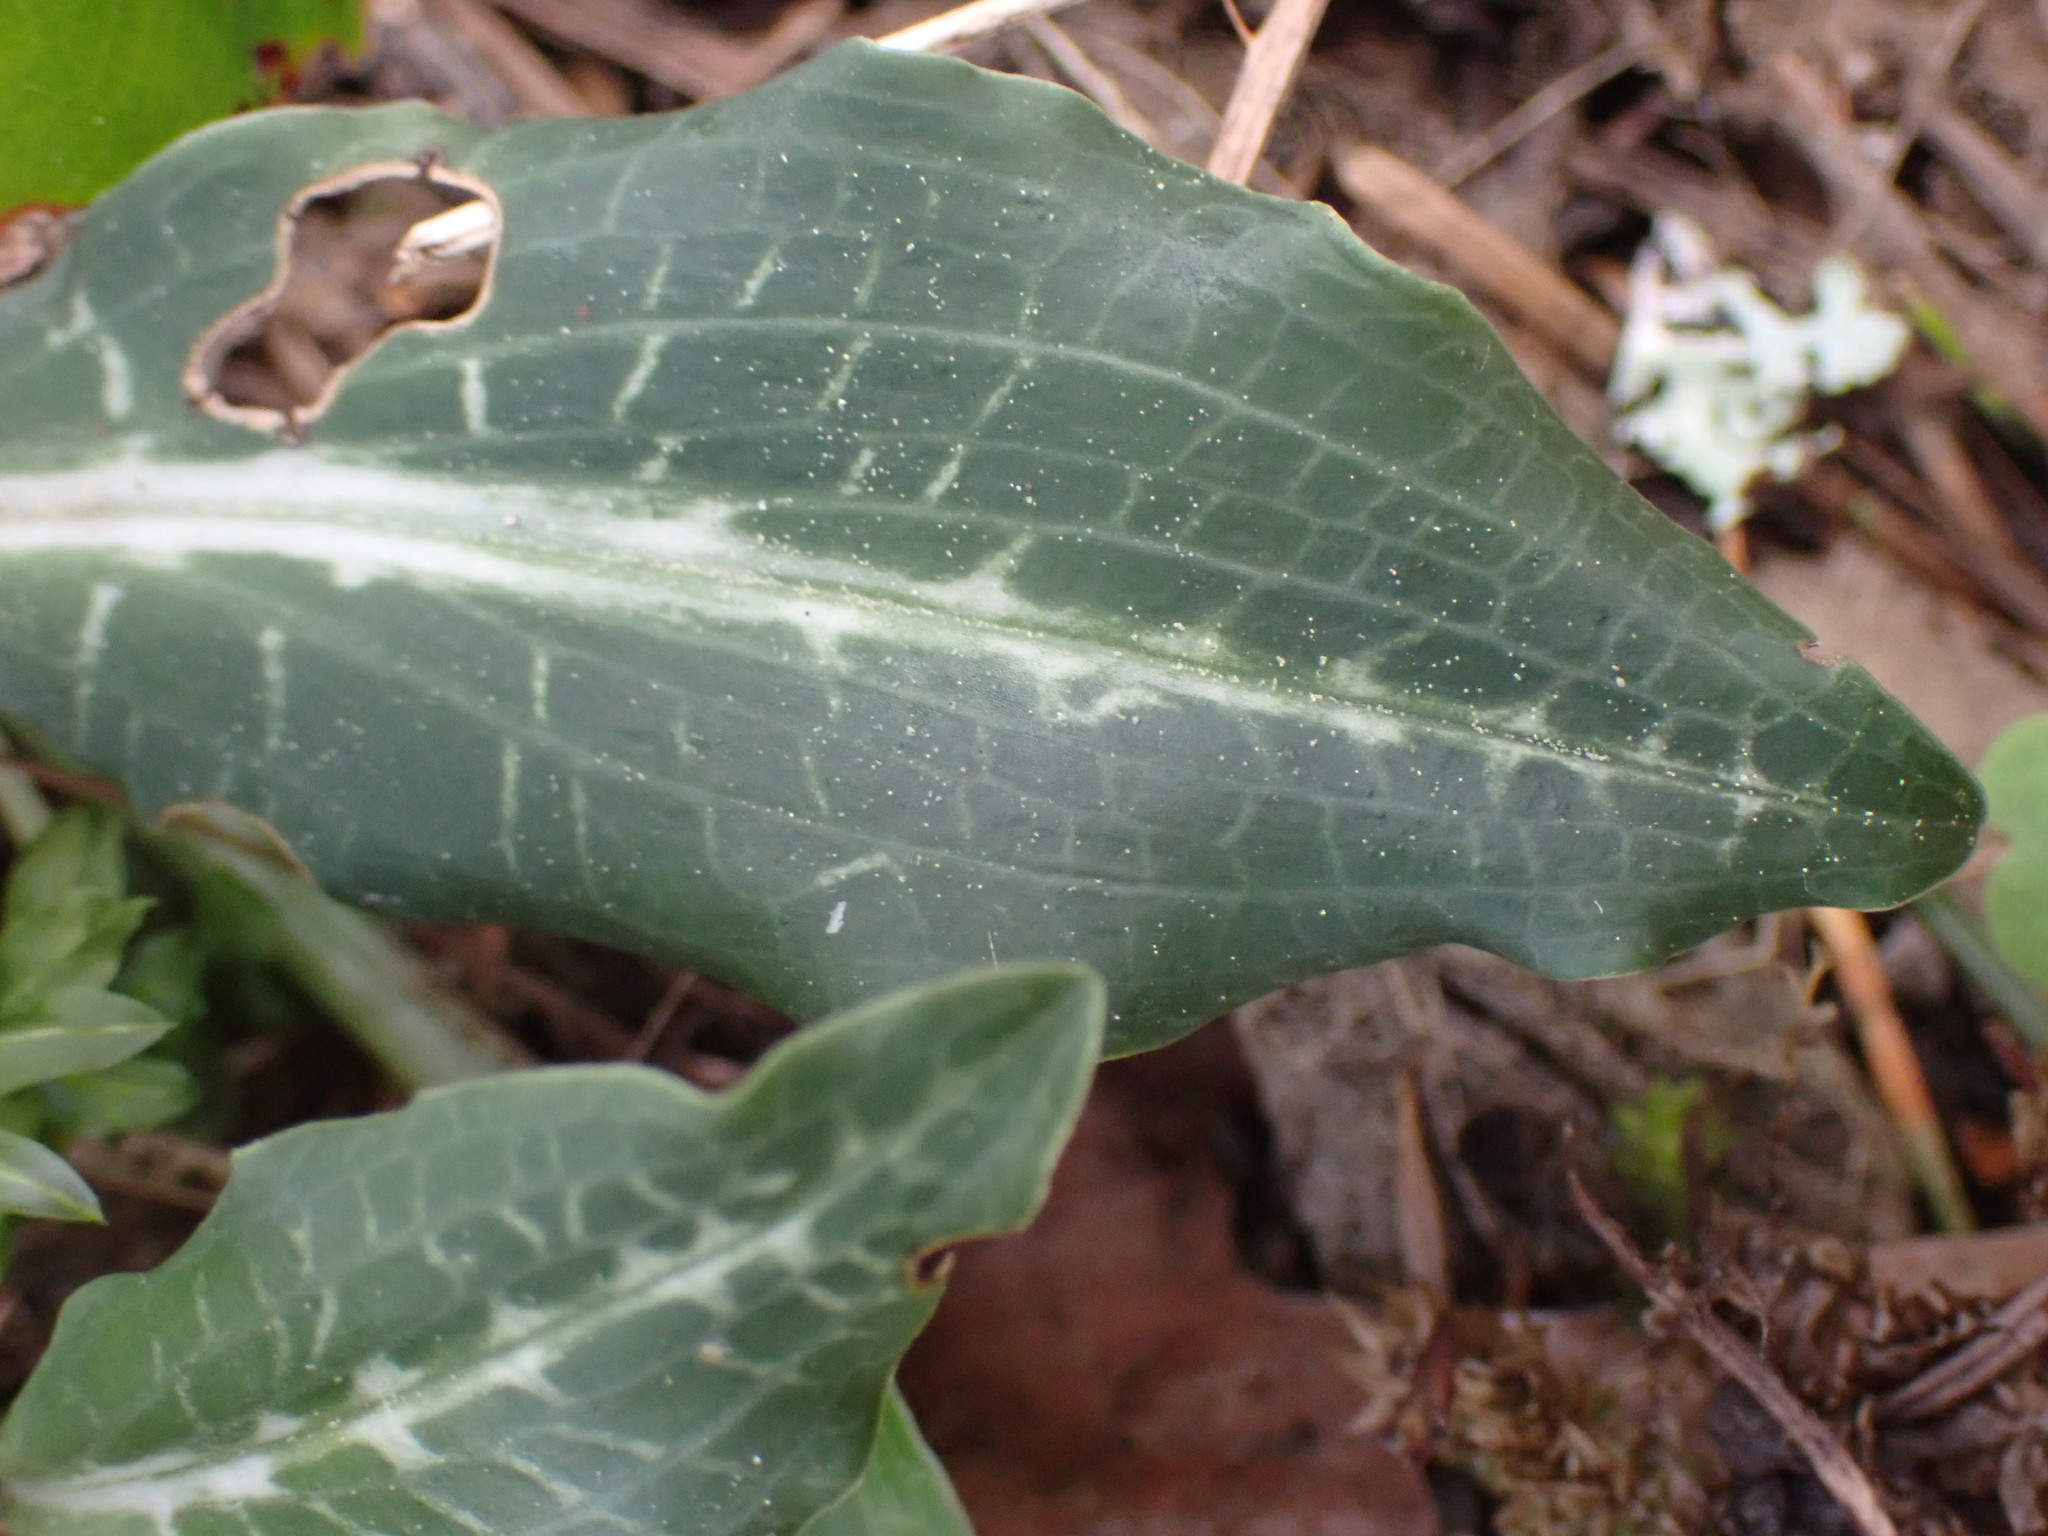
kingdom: Plantae
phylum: Tracheophyta
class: Liliopsida
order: Asparagales
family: Orchidaceae
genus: Goodyera
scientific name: Goodyera oblongifolia
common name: Giant rattlesnake-plantain
